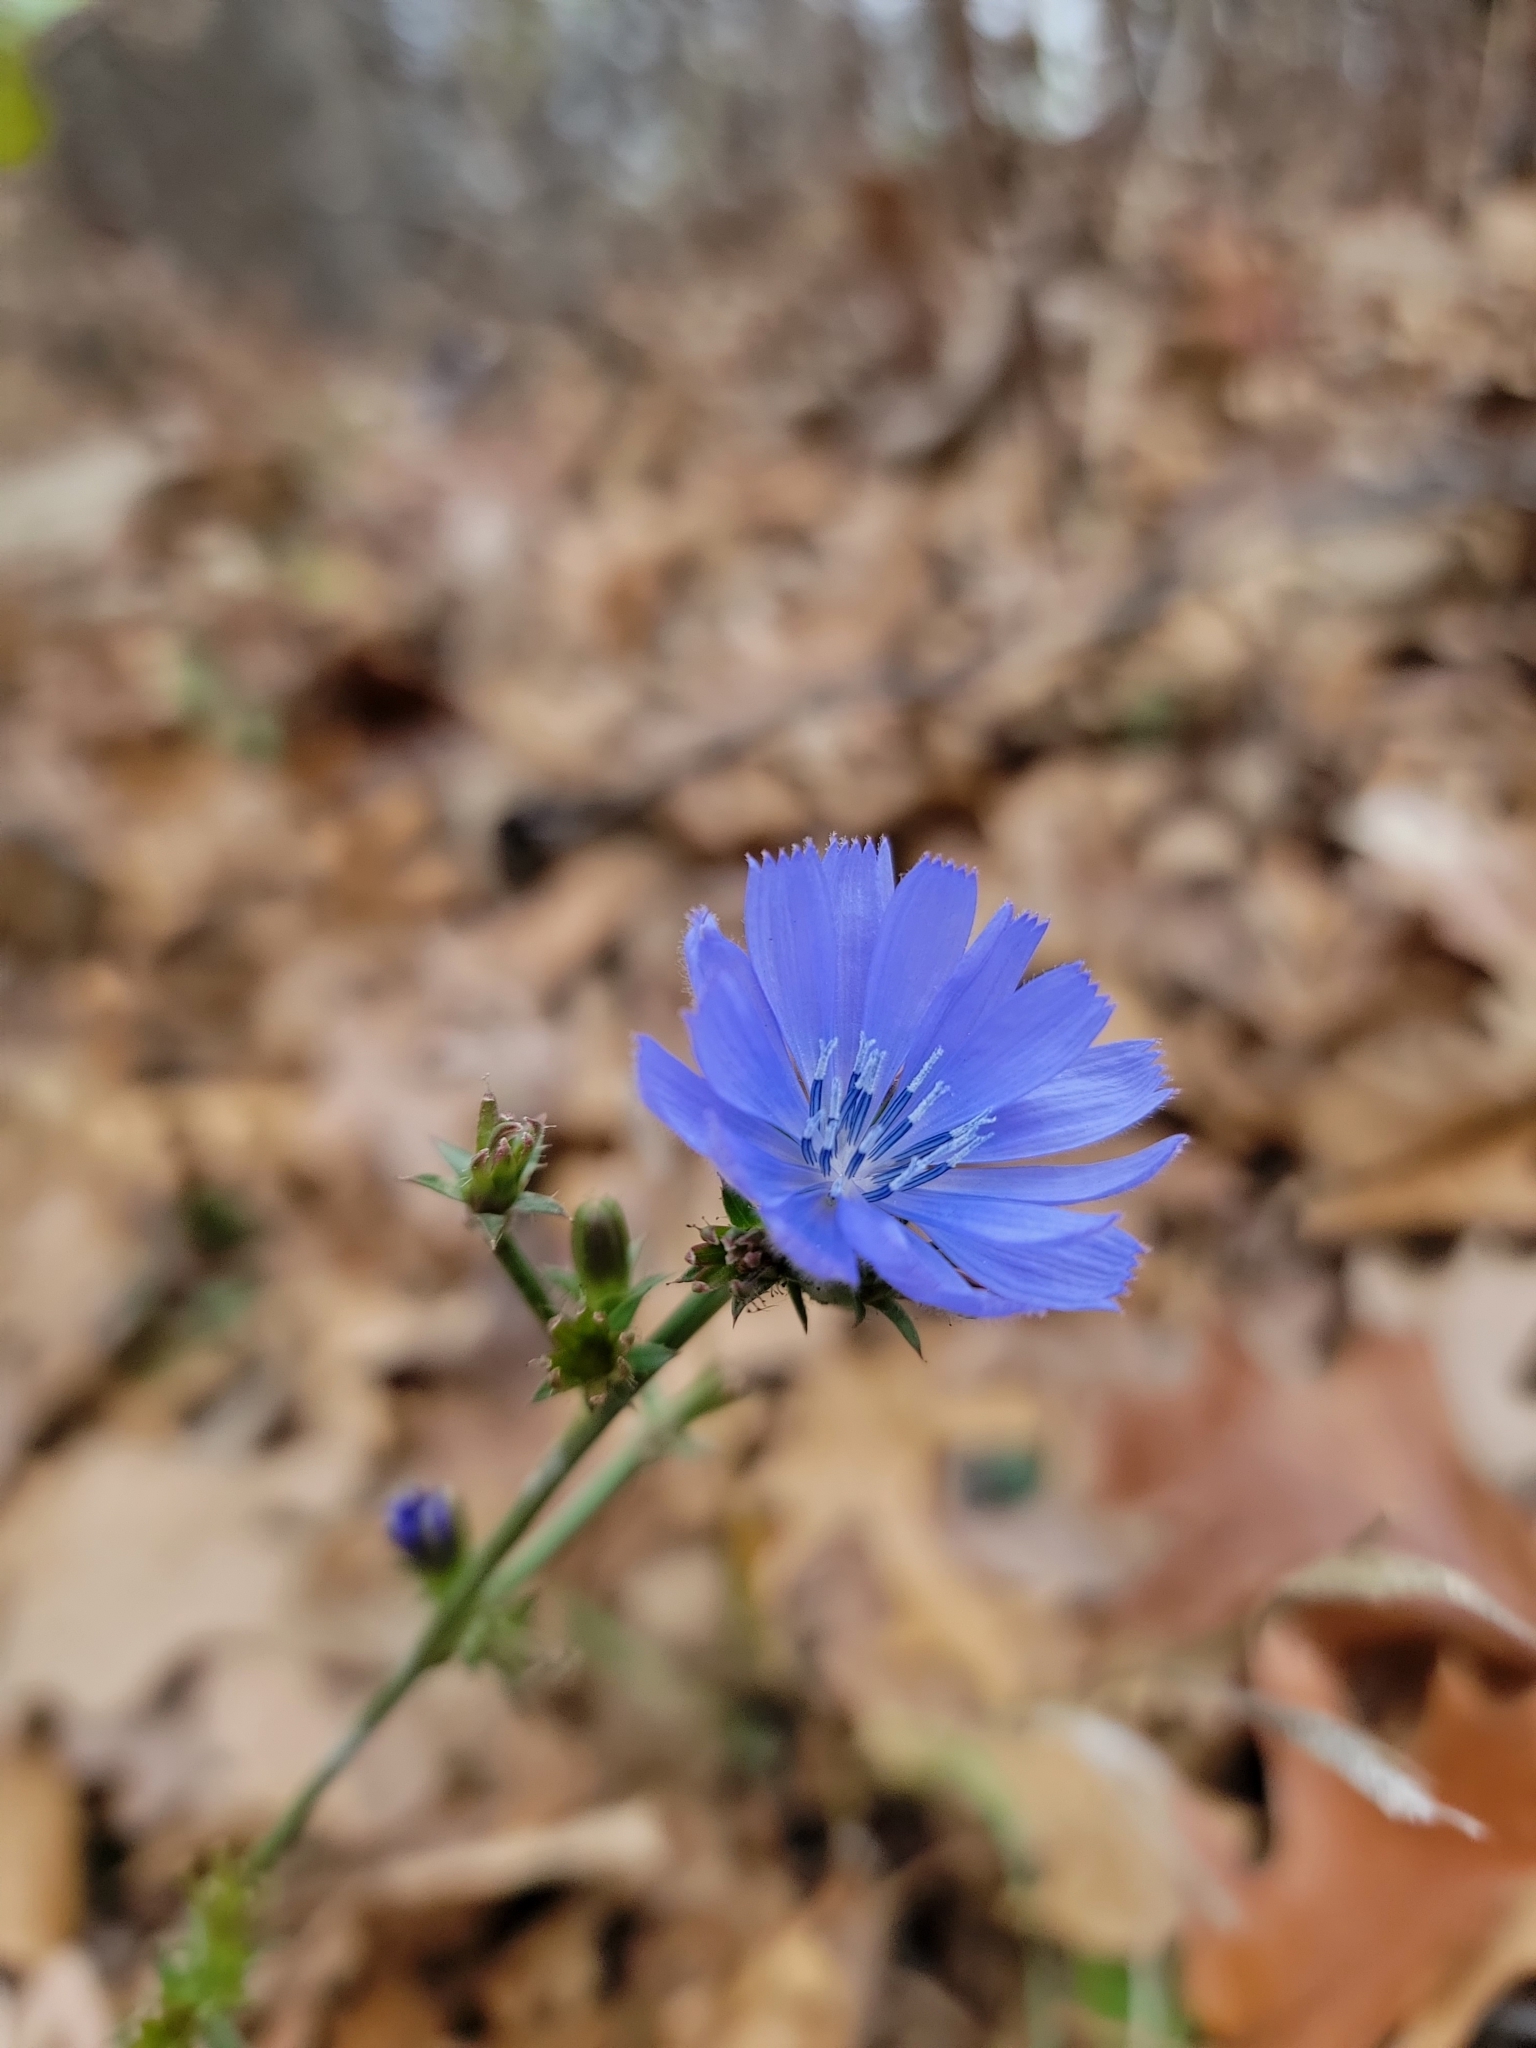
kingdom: Plantae
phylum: Tracheophyta
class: Magnoliopsida
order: Asterales
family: Asteraceae
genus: Cichorium
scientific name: Cichorium intybus
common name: Chicory
